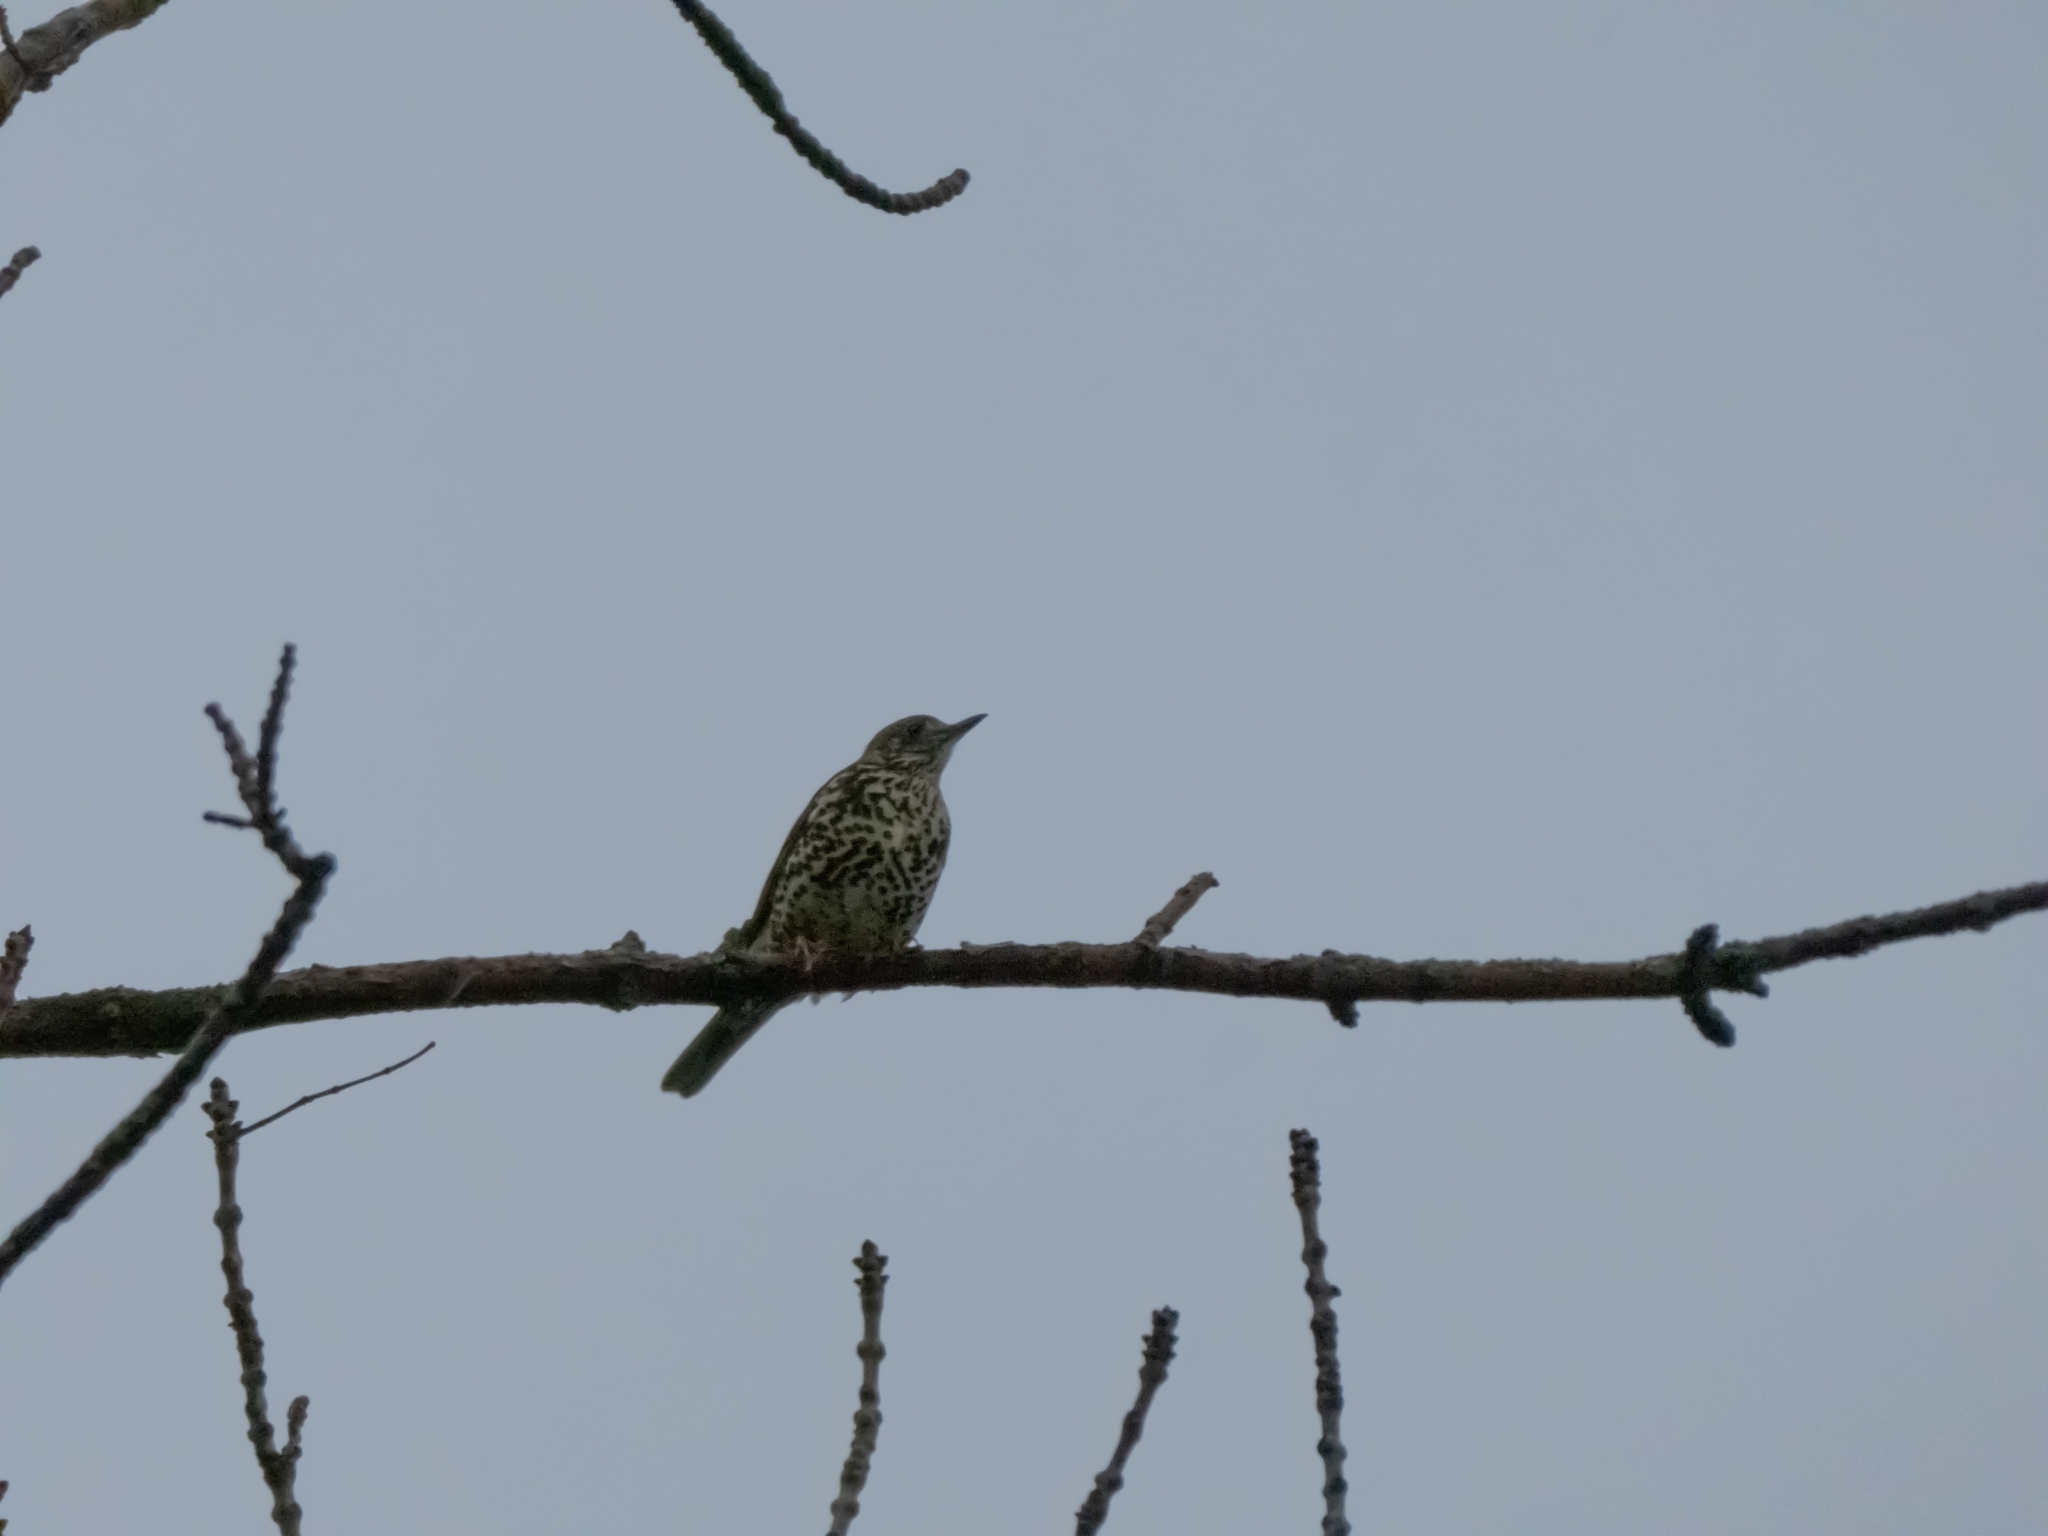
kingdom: Animalia
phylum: Chordata
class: Aves
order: Passeriformes
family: Turdidae
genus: Turdus
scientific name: Turdus viscivorus
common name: Mistle thrush
